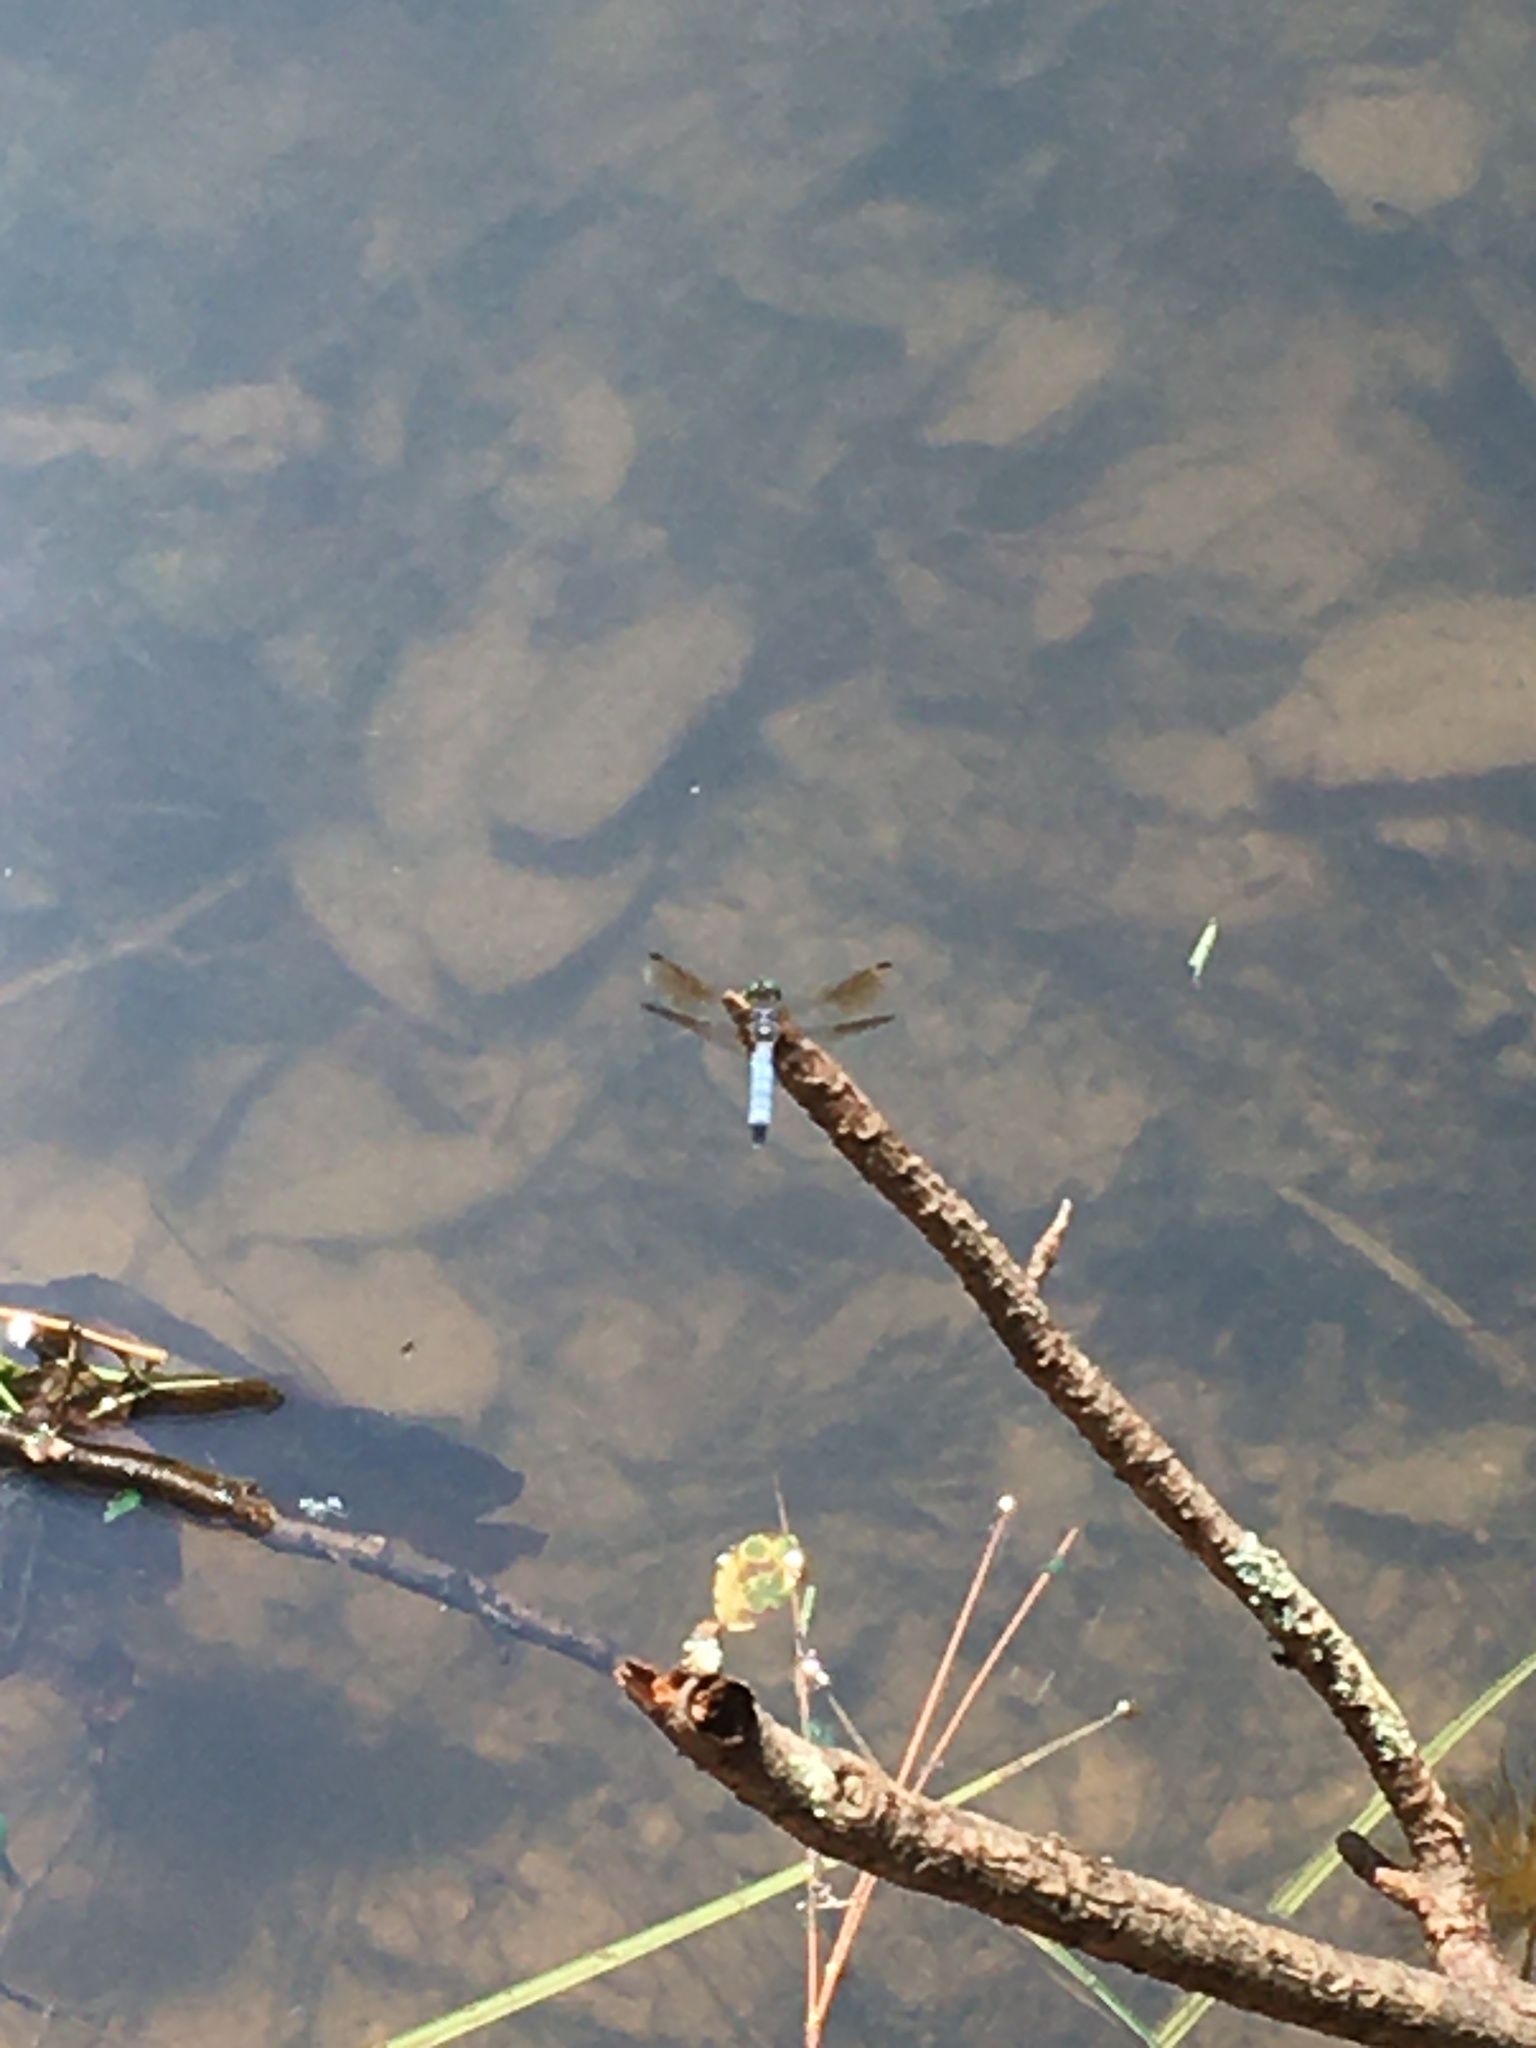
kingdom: Animalia
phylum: Arthropoda
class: Insecta
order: Odonata
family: Libellulidae
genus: Pachydiplax
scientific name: Pachydiplax longipennis
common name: Blue dasher
